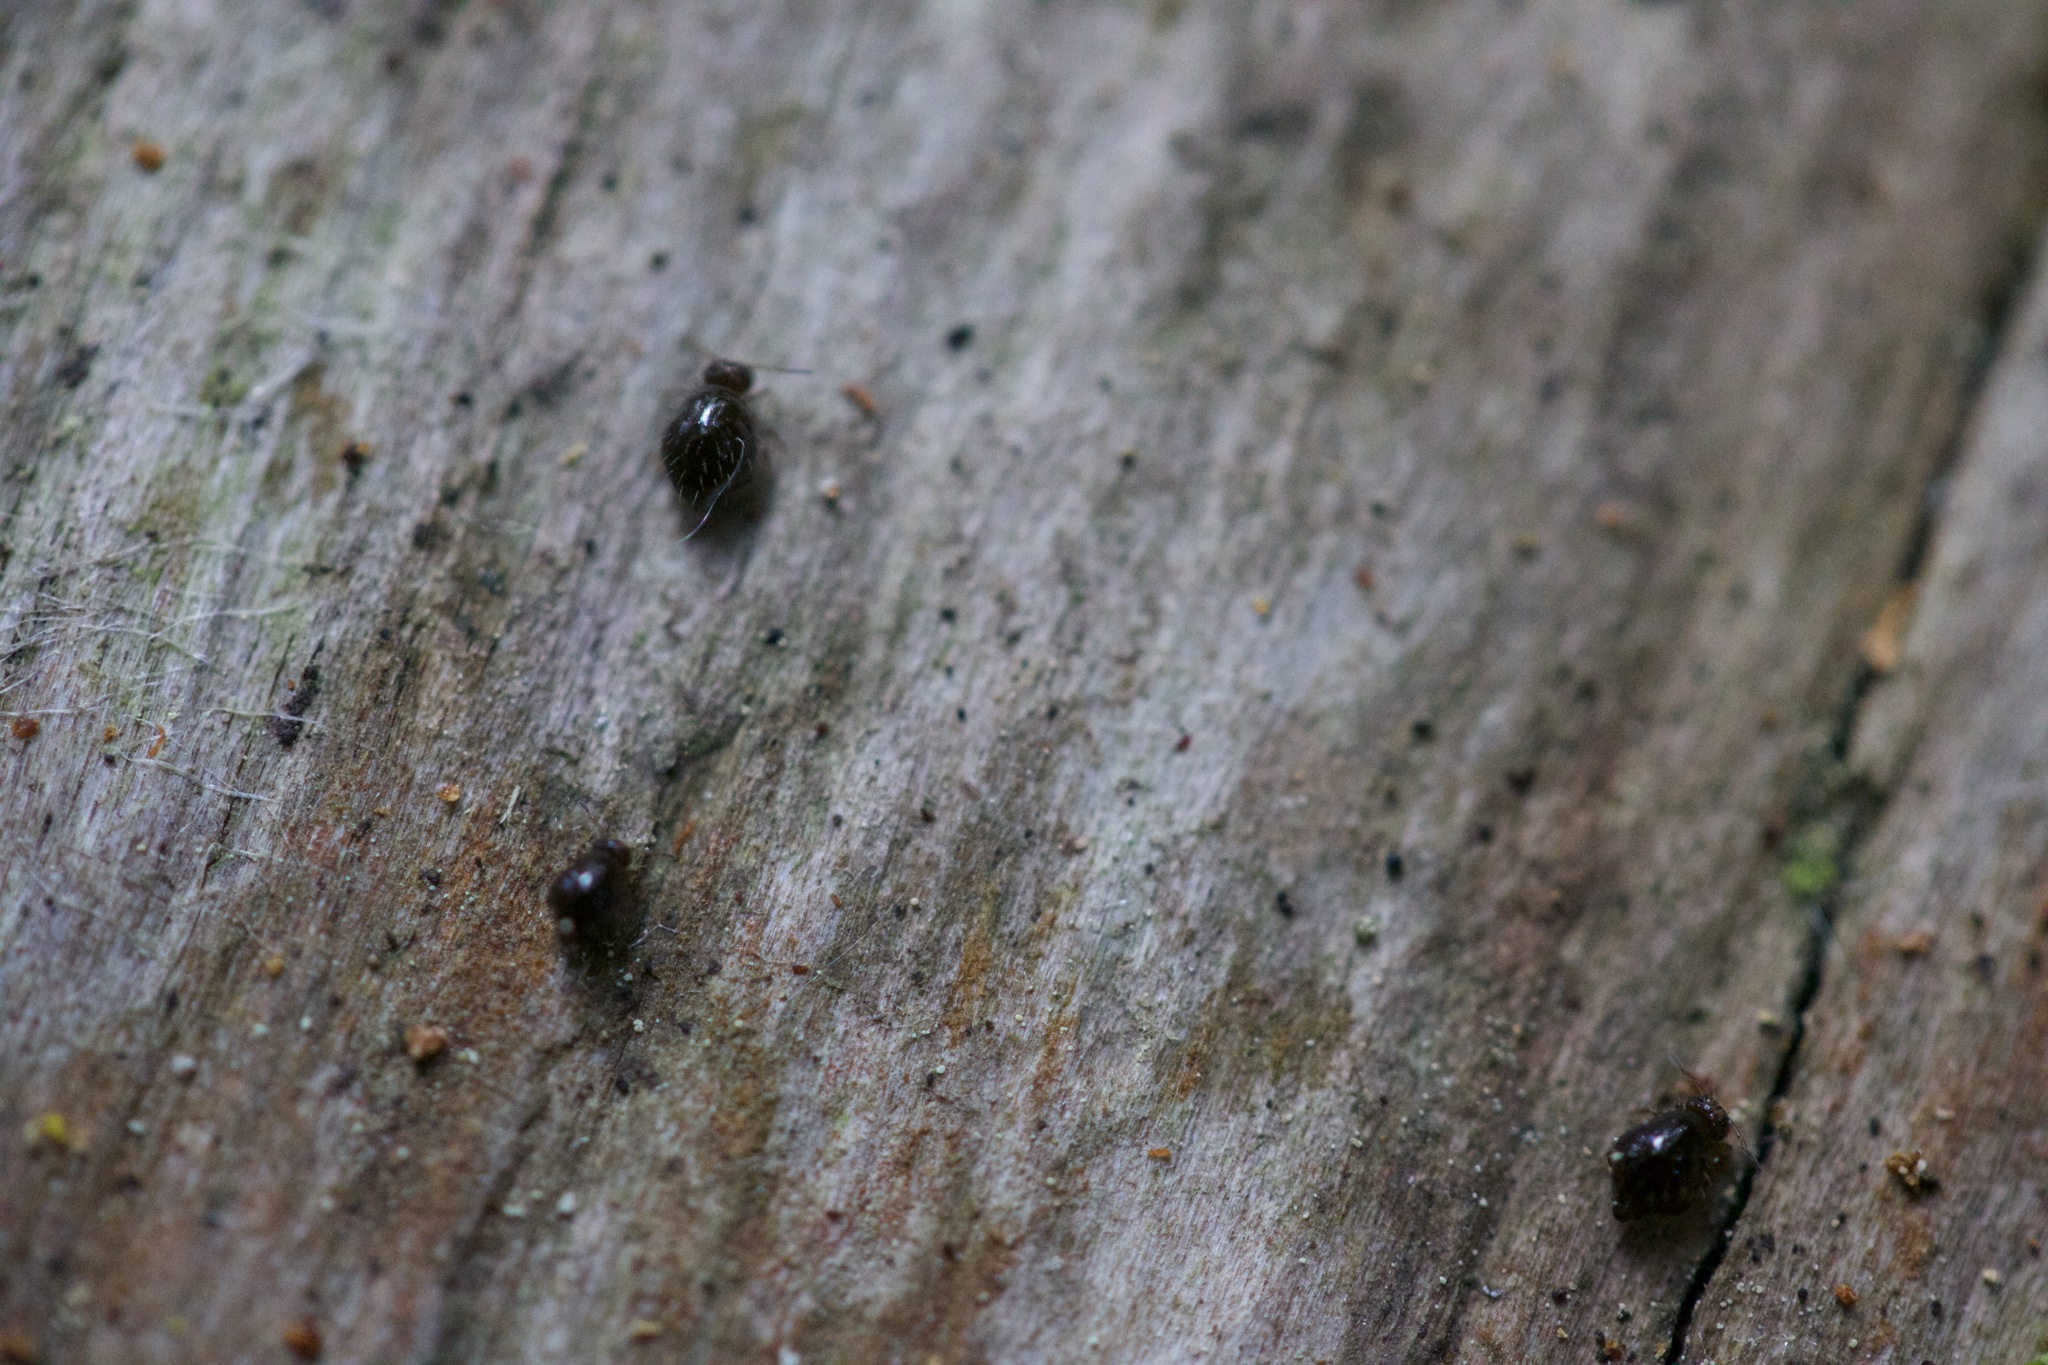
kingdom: Animalia
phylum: Arthropoda
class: Collembola
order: Symphypleona
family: Sminthuridae
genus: Allacma
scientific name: Allacma fusca
